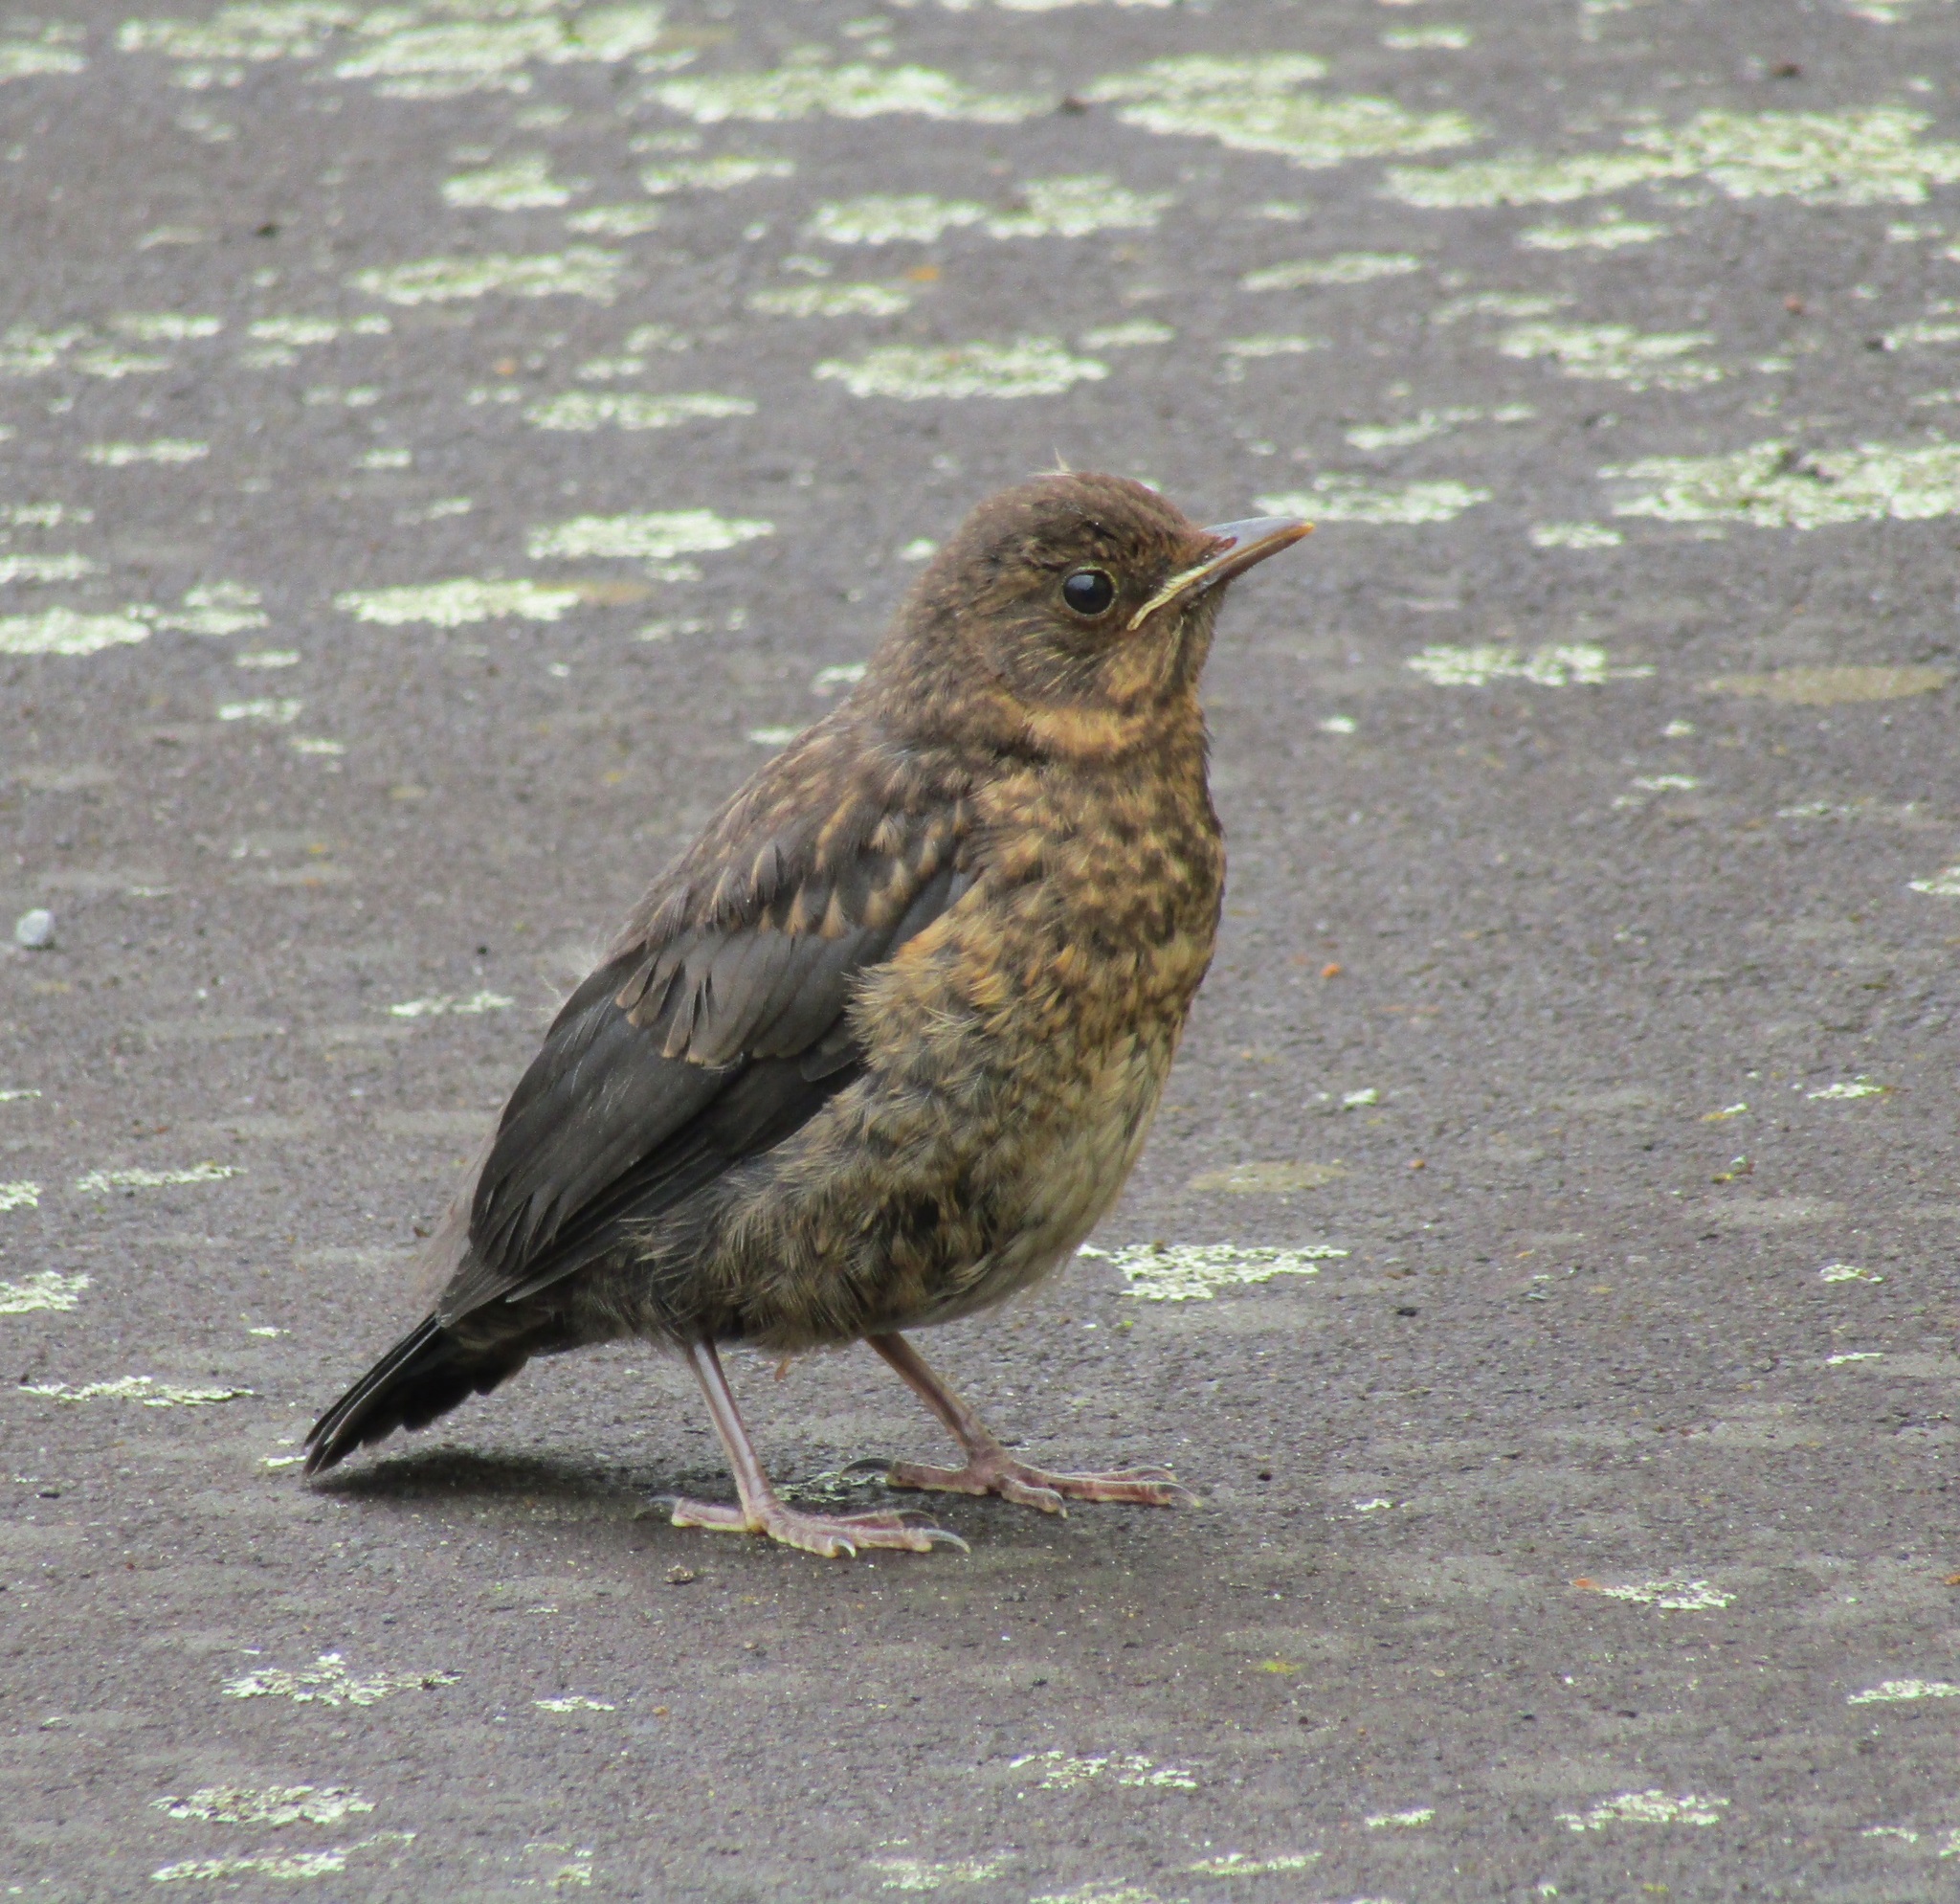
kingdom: Animalia
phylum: Chordata
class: Aves
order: Passeriformes
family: Turdidae
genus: Turdus
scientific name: Turdus merula
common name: Common blackbird
